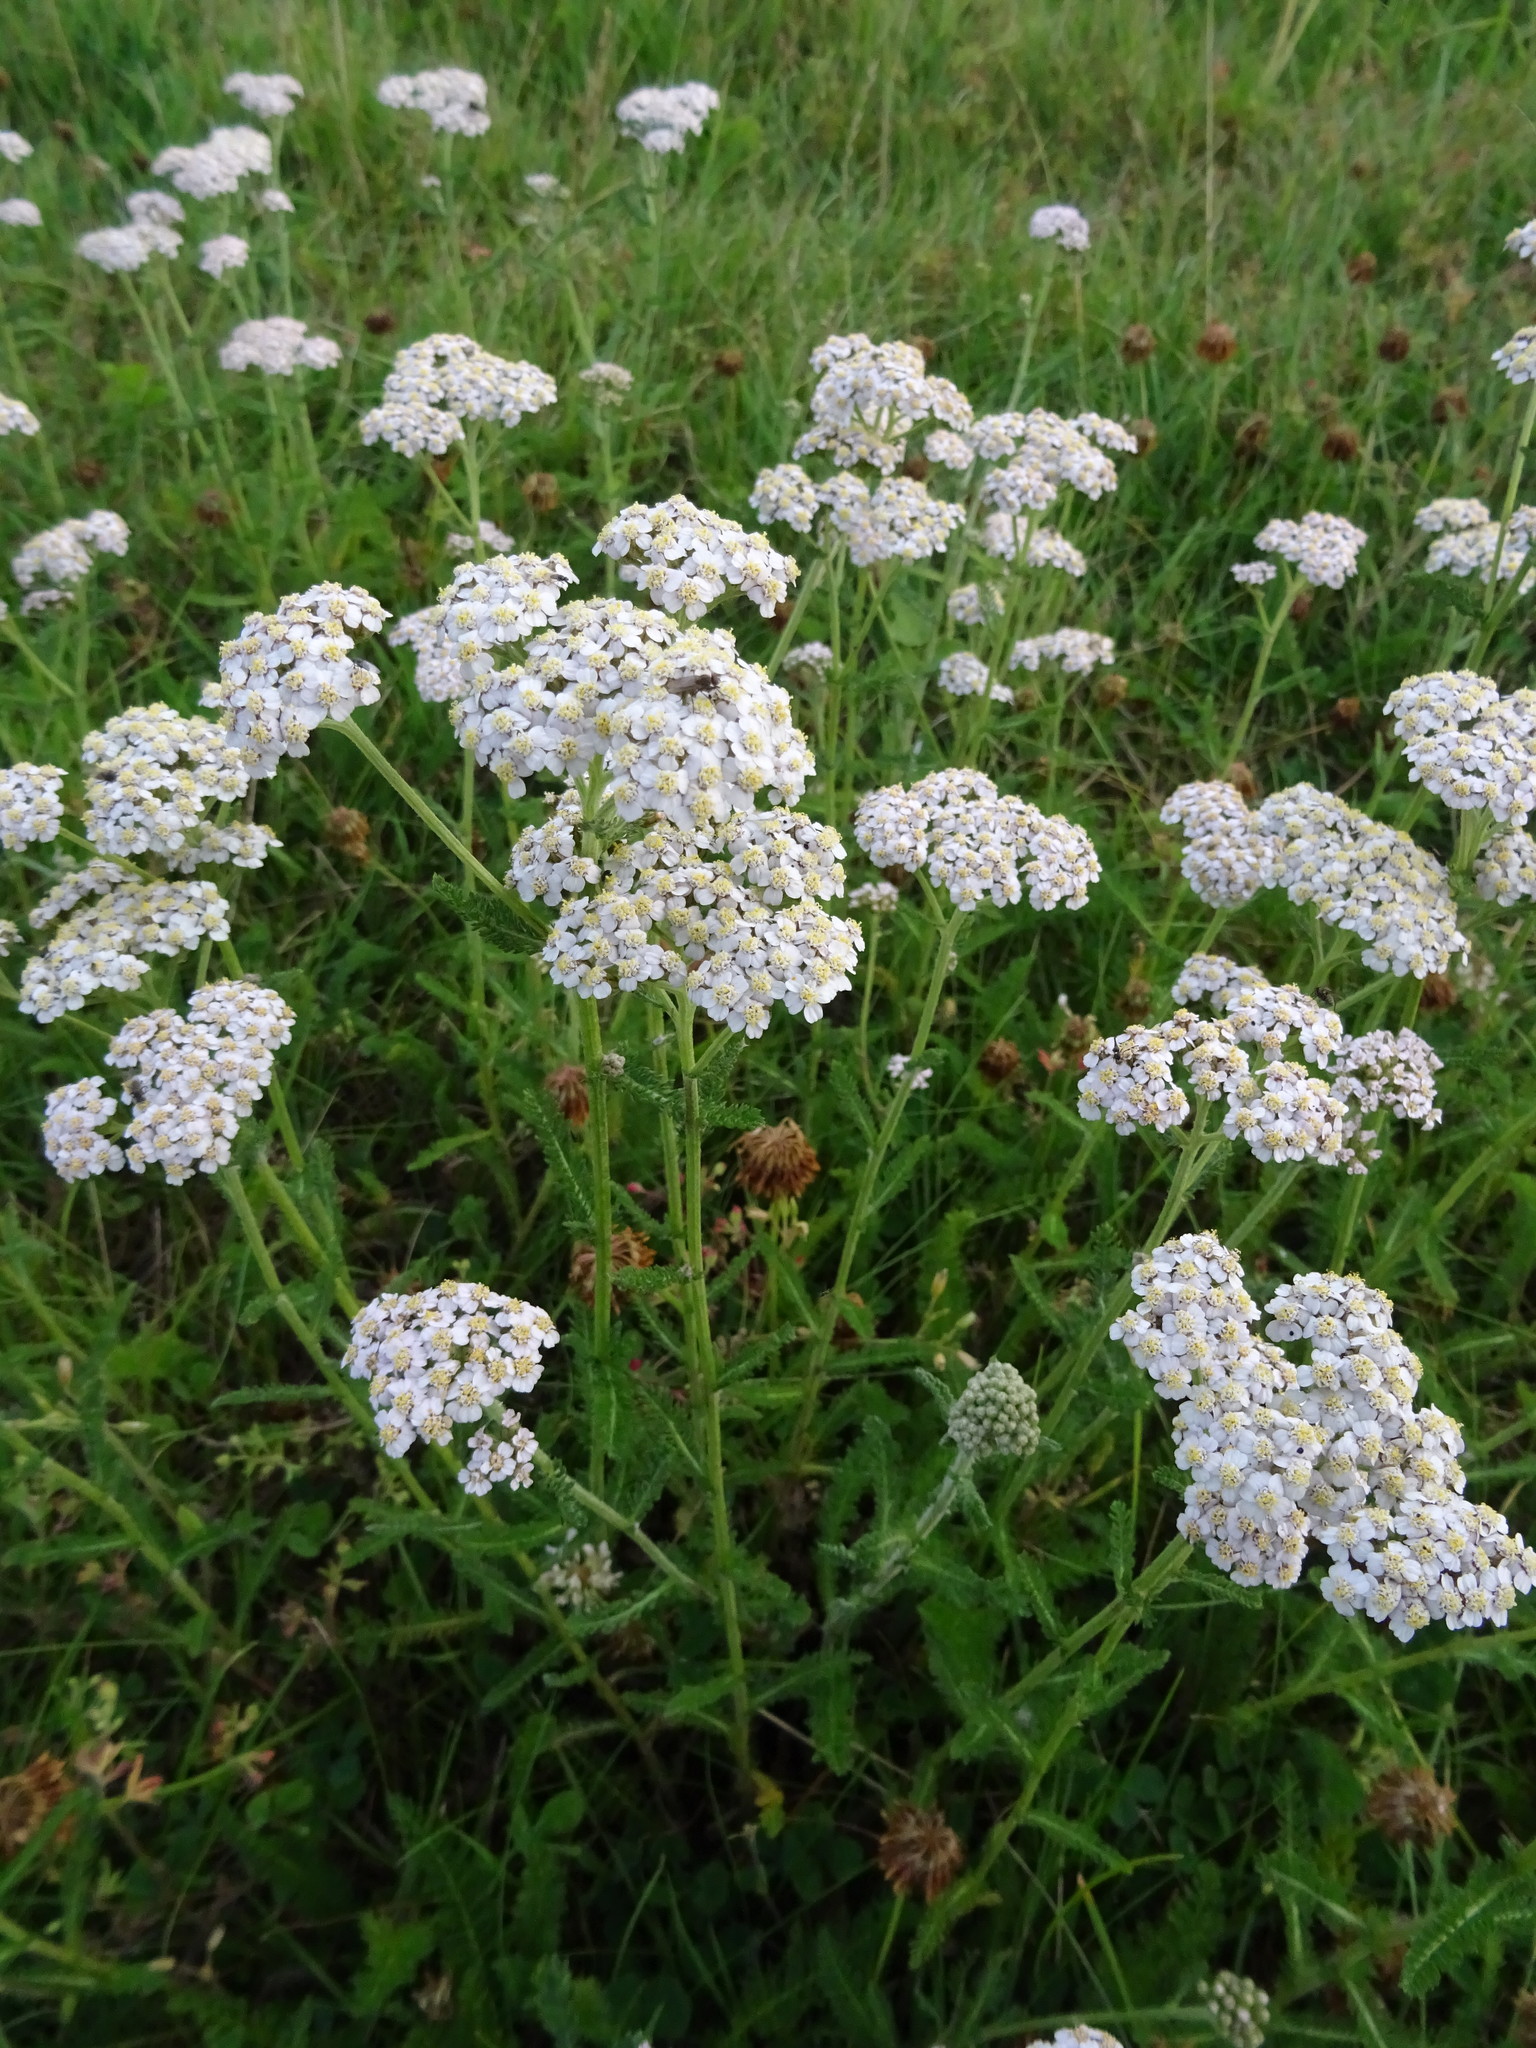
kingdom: Plantae
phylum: Tracheophyta
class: Magnoliopsida
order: Asterales
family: Asteraceae
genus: Achillea
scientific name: Achillea millefolium
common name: Yarrow
